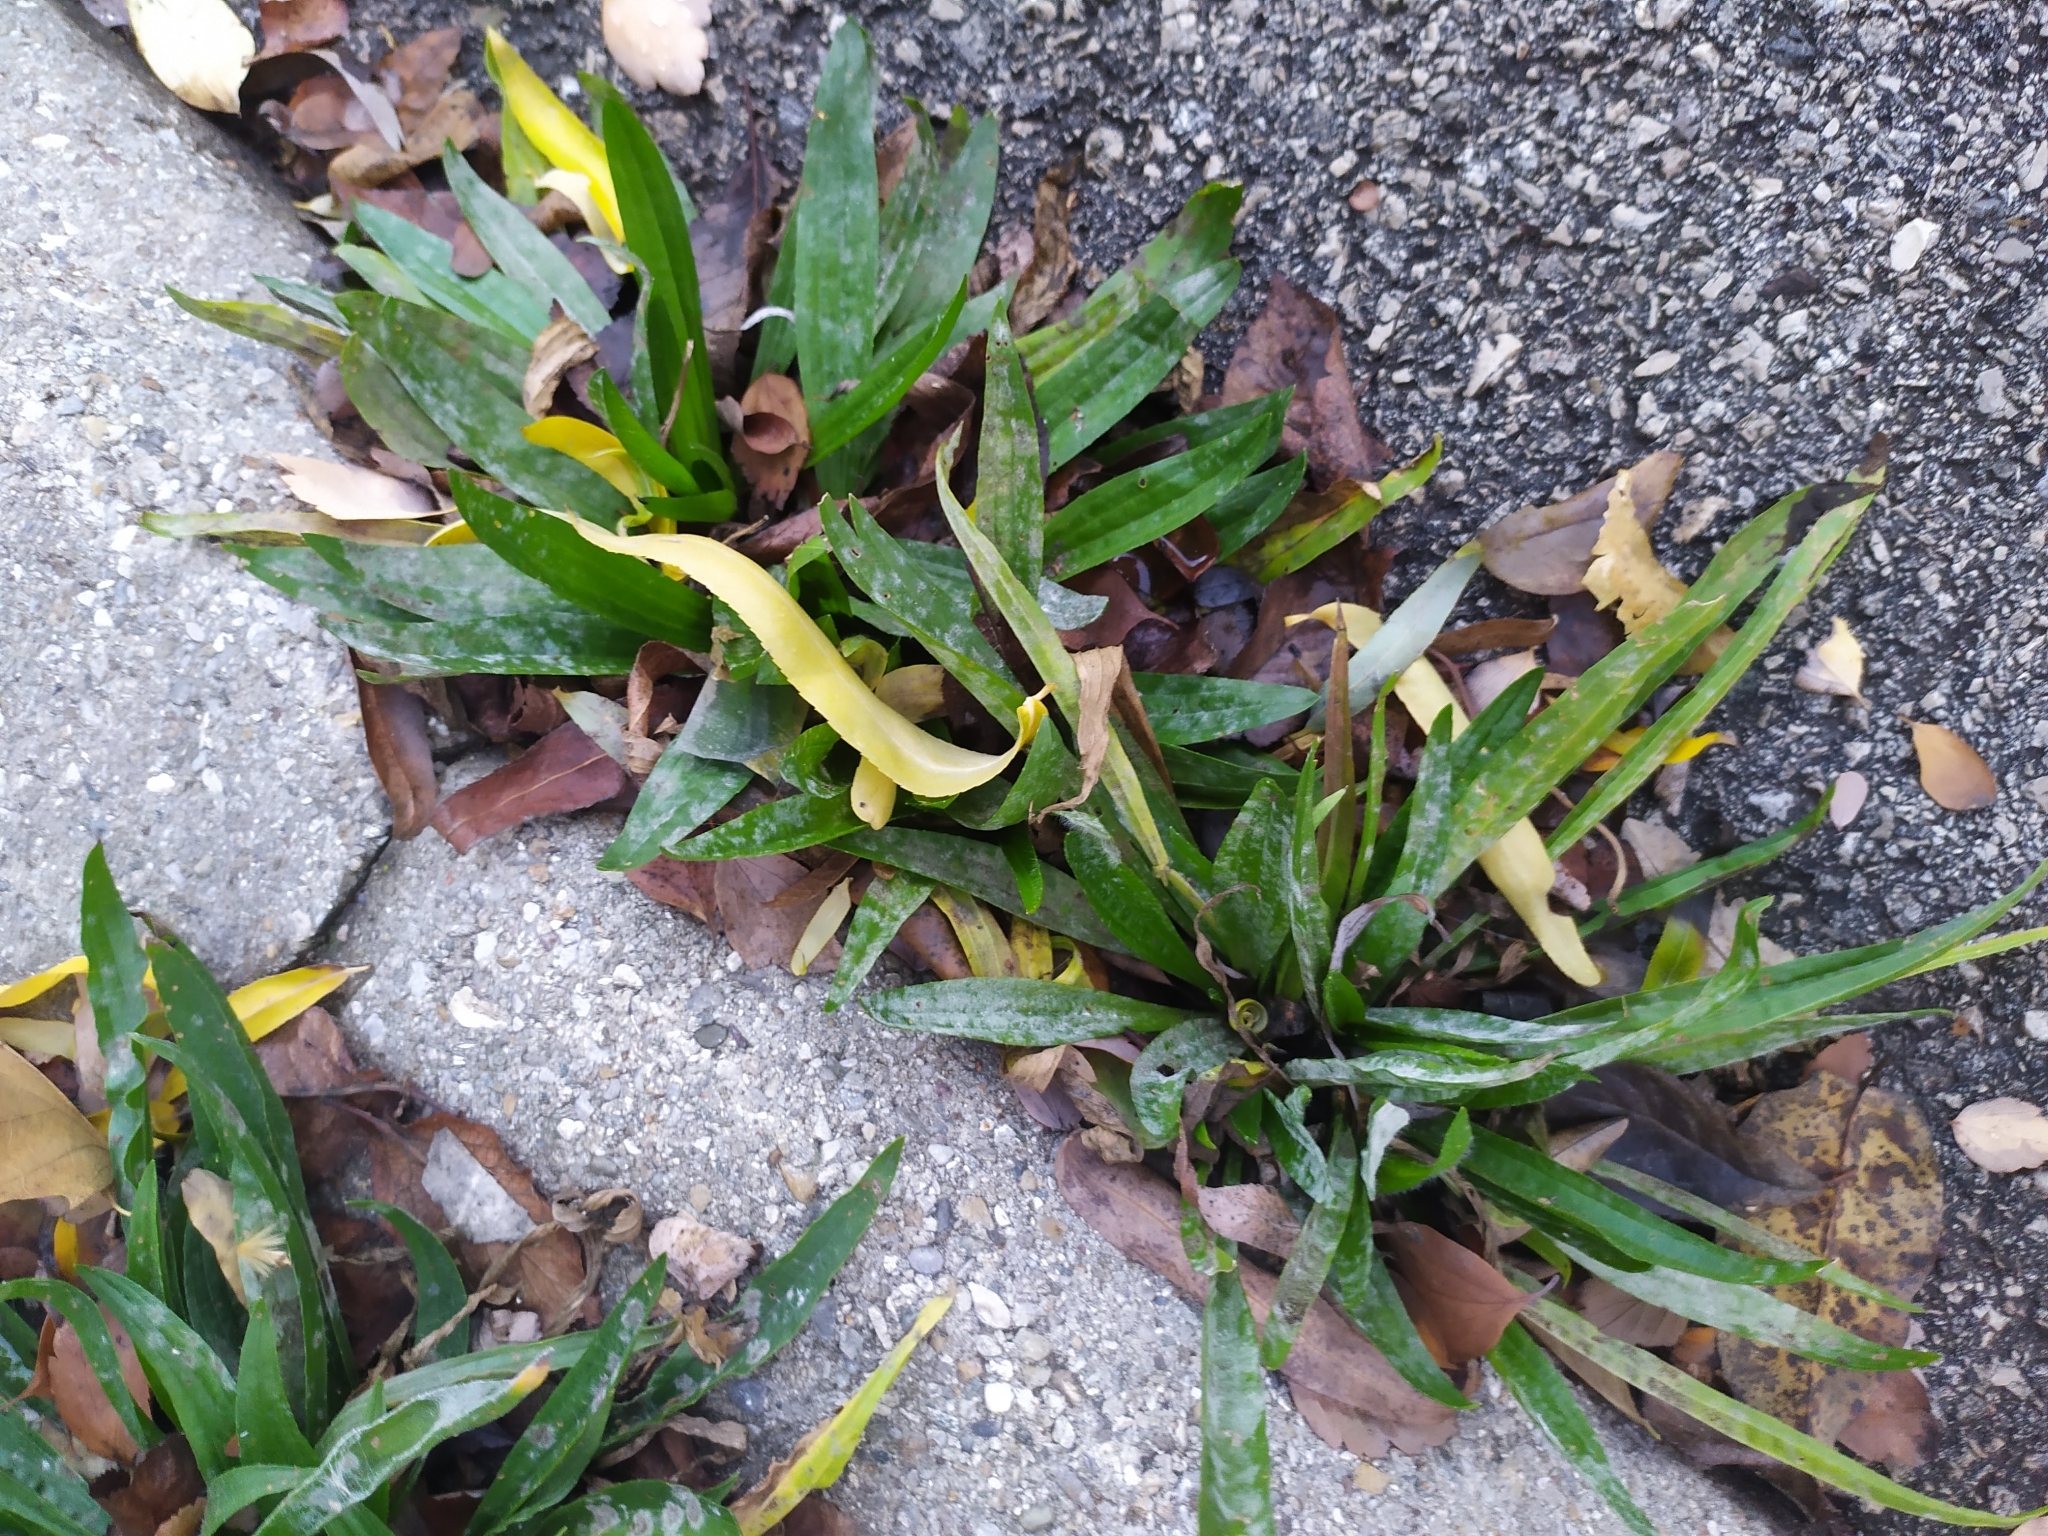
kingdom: Plantae
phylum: Tracheophyta
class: Magnoliopsida
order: Lamiales
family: Plantaginaceae
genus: Plantago
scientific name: Plantago lanceolata
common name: Ribwort plantain
